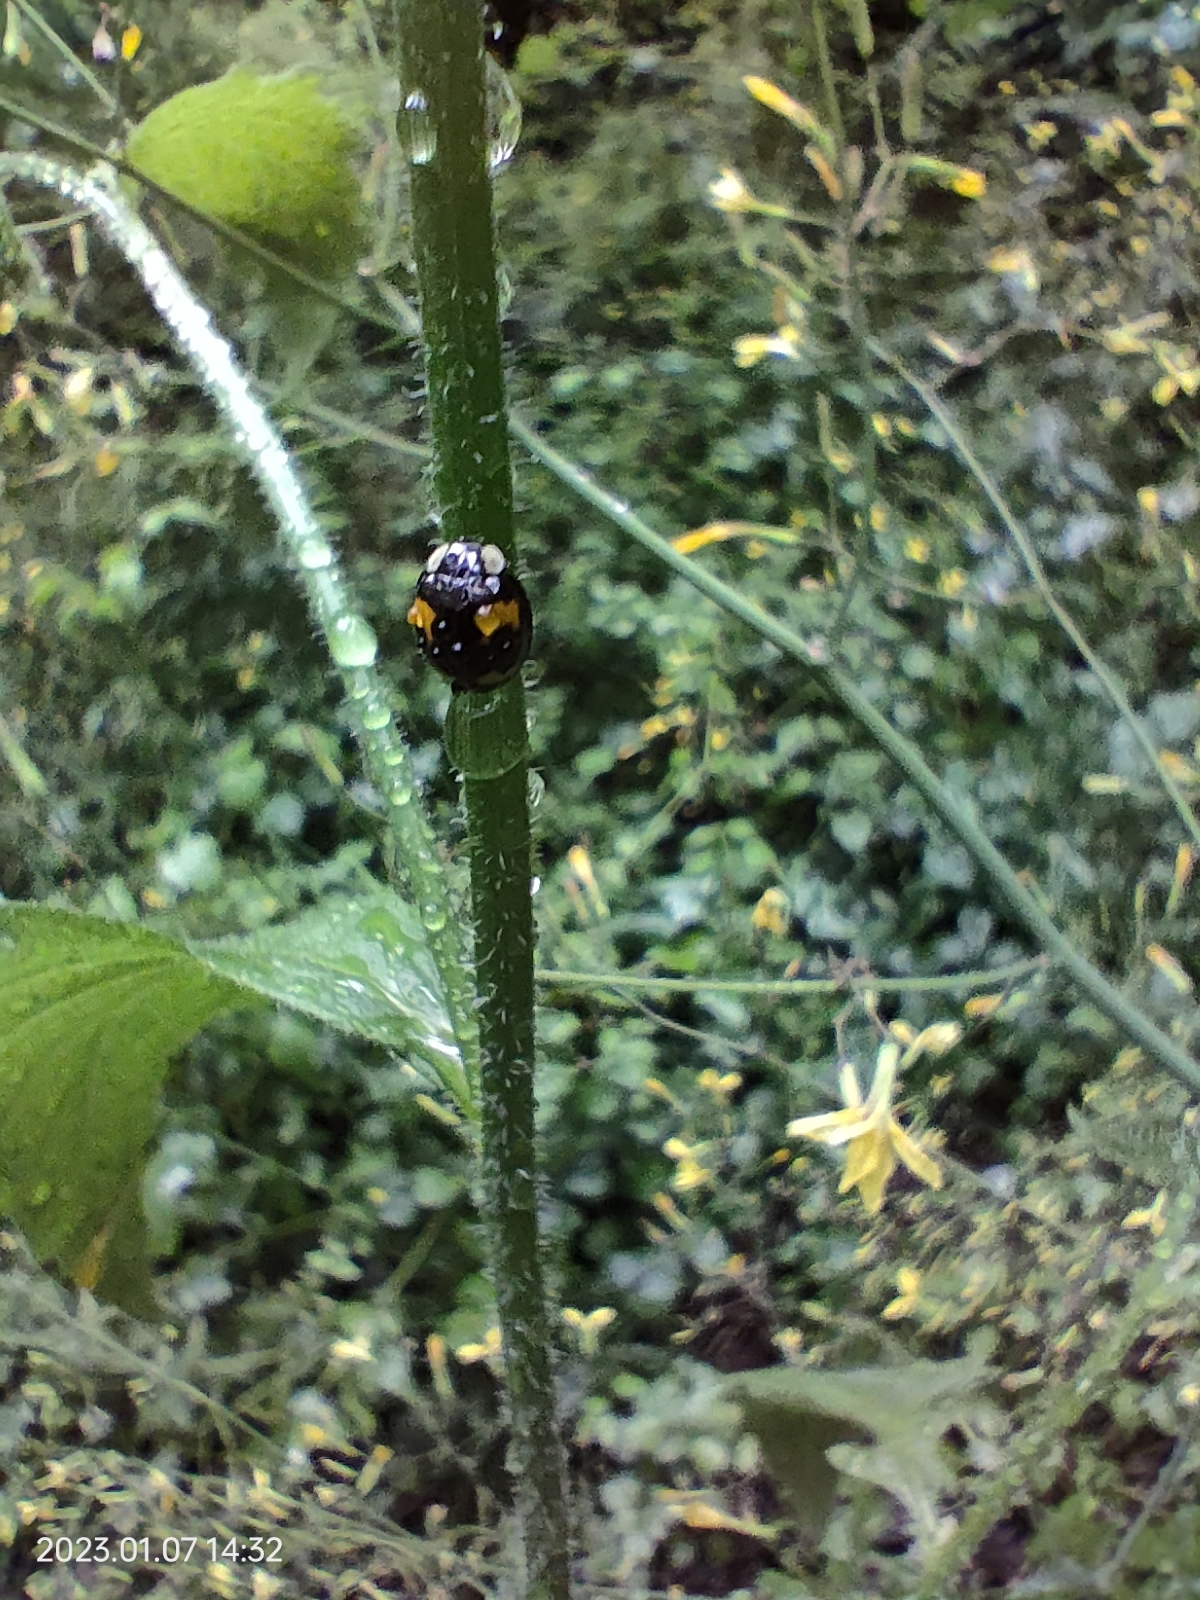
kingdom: Animalia
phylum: Arthropoda
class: Insecta
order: Coleoptera
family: Coccinellidae
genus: Harmonia
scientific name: Harmonia axyridis
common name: Harlequin ladybird
